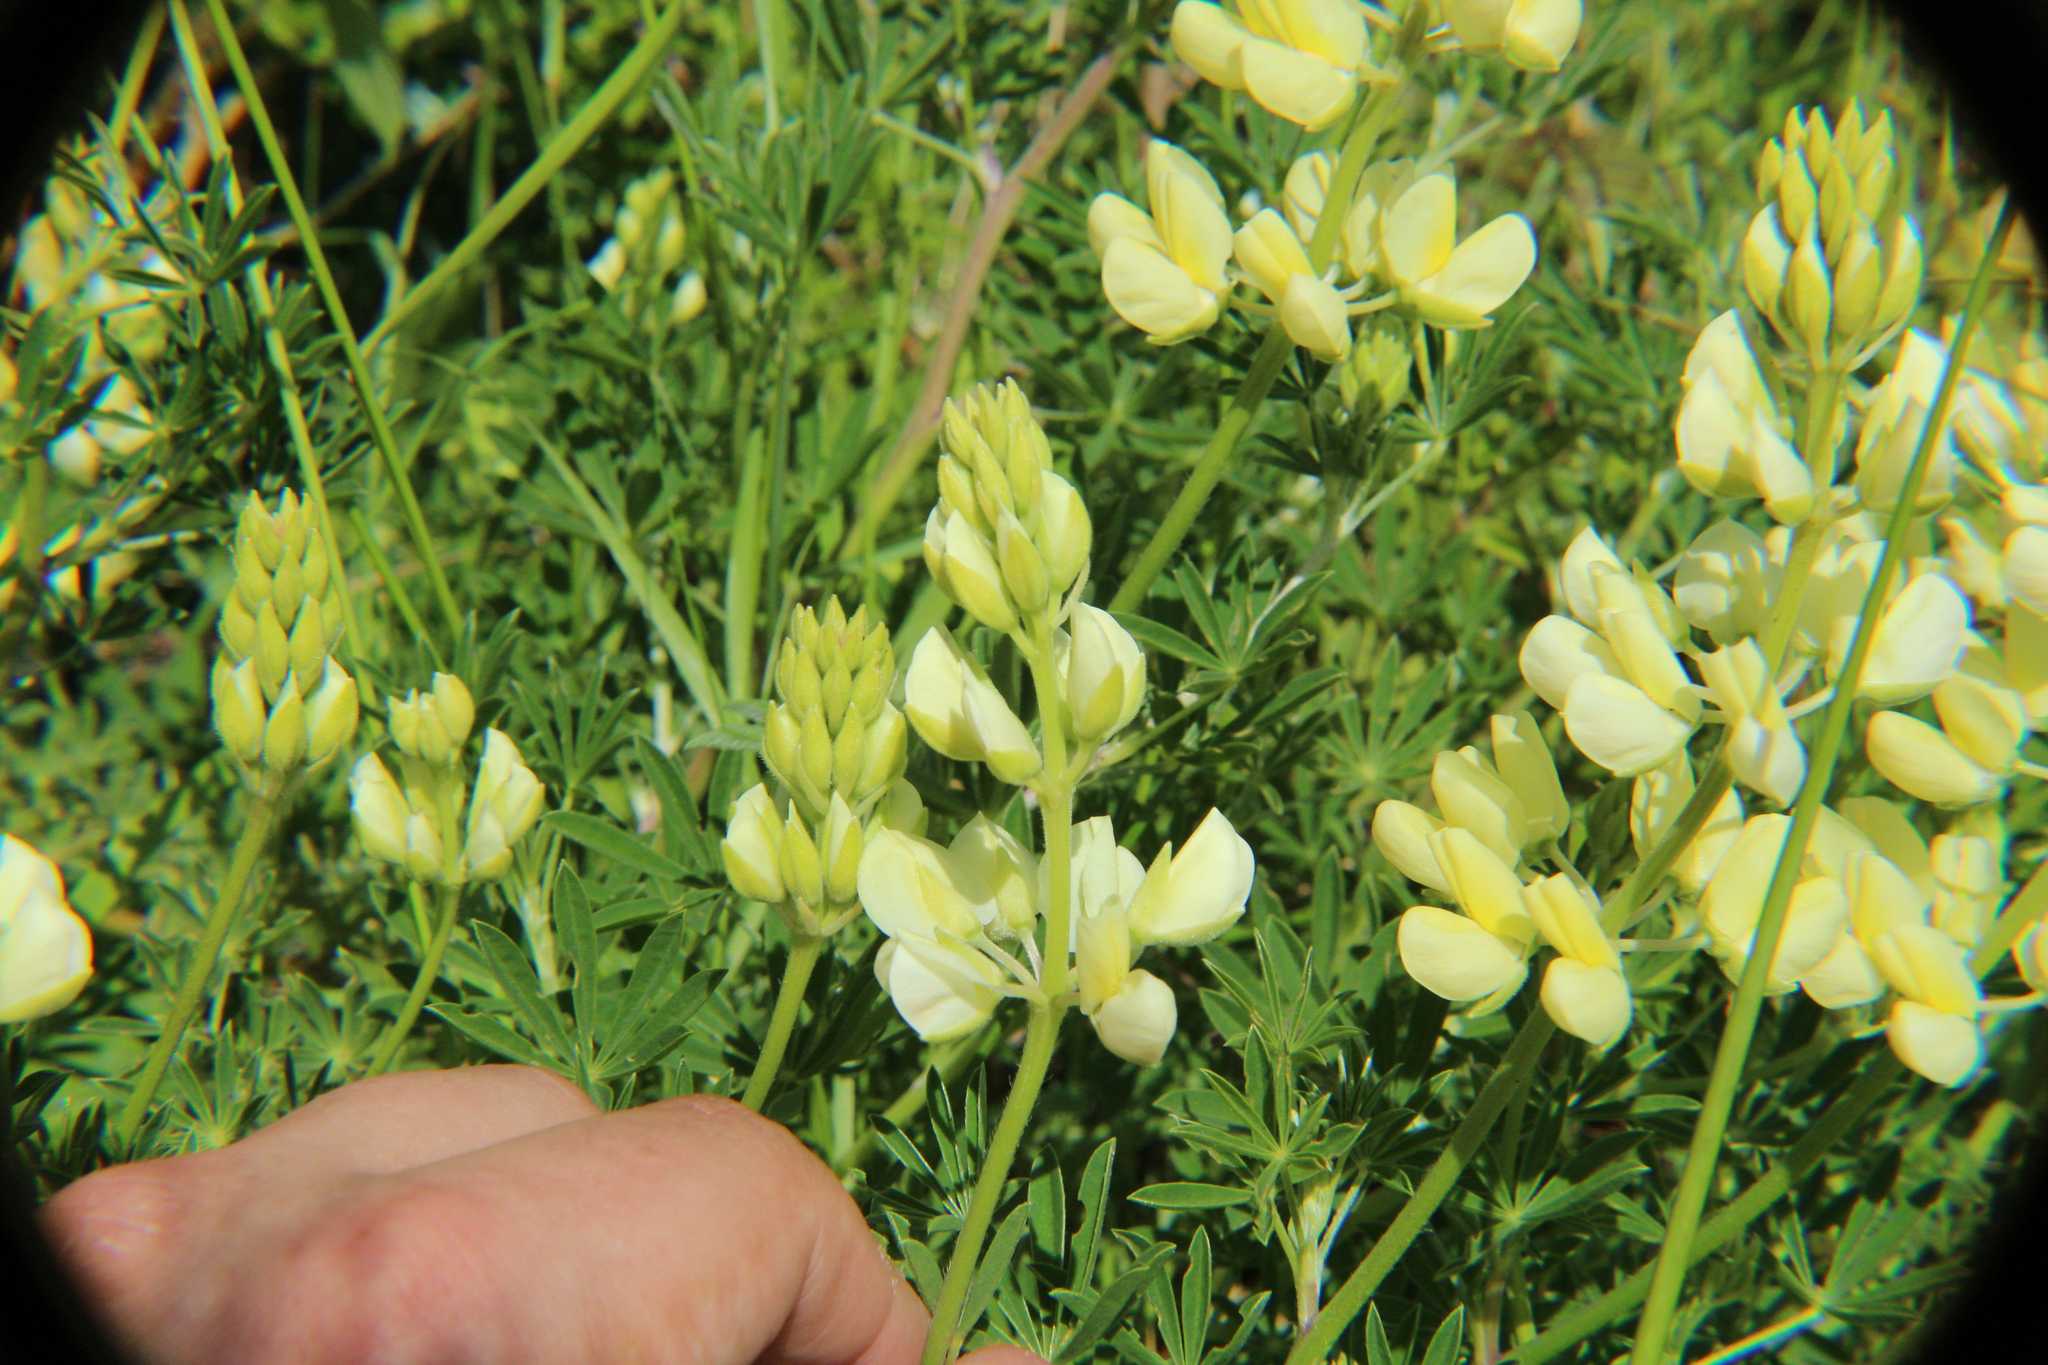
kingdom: Plantae
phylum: Tracheophyta
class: Magnoliopsida
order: Fabales
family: Fabaceae
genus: Lupinus
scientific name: Lupinus arboreus
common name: Yellow bush lupine
